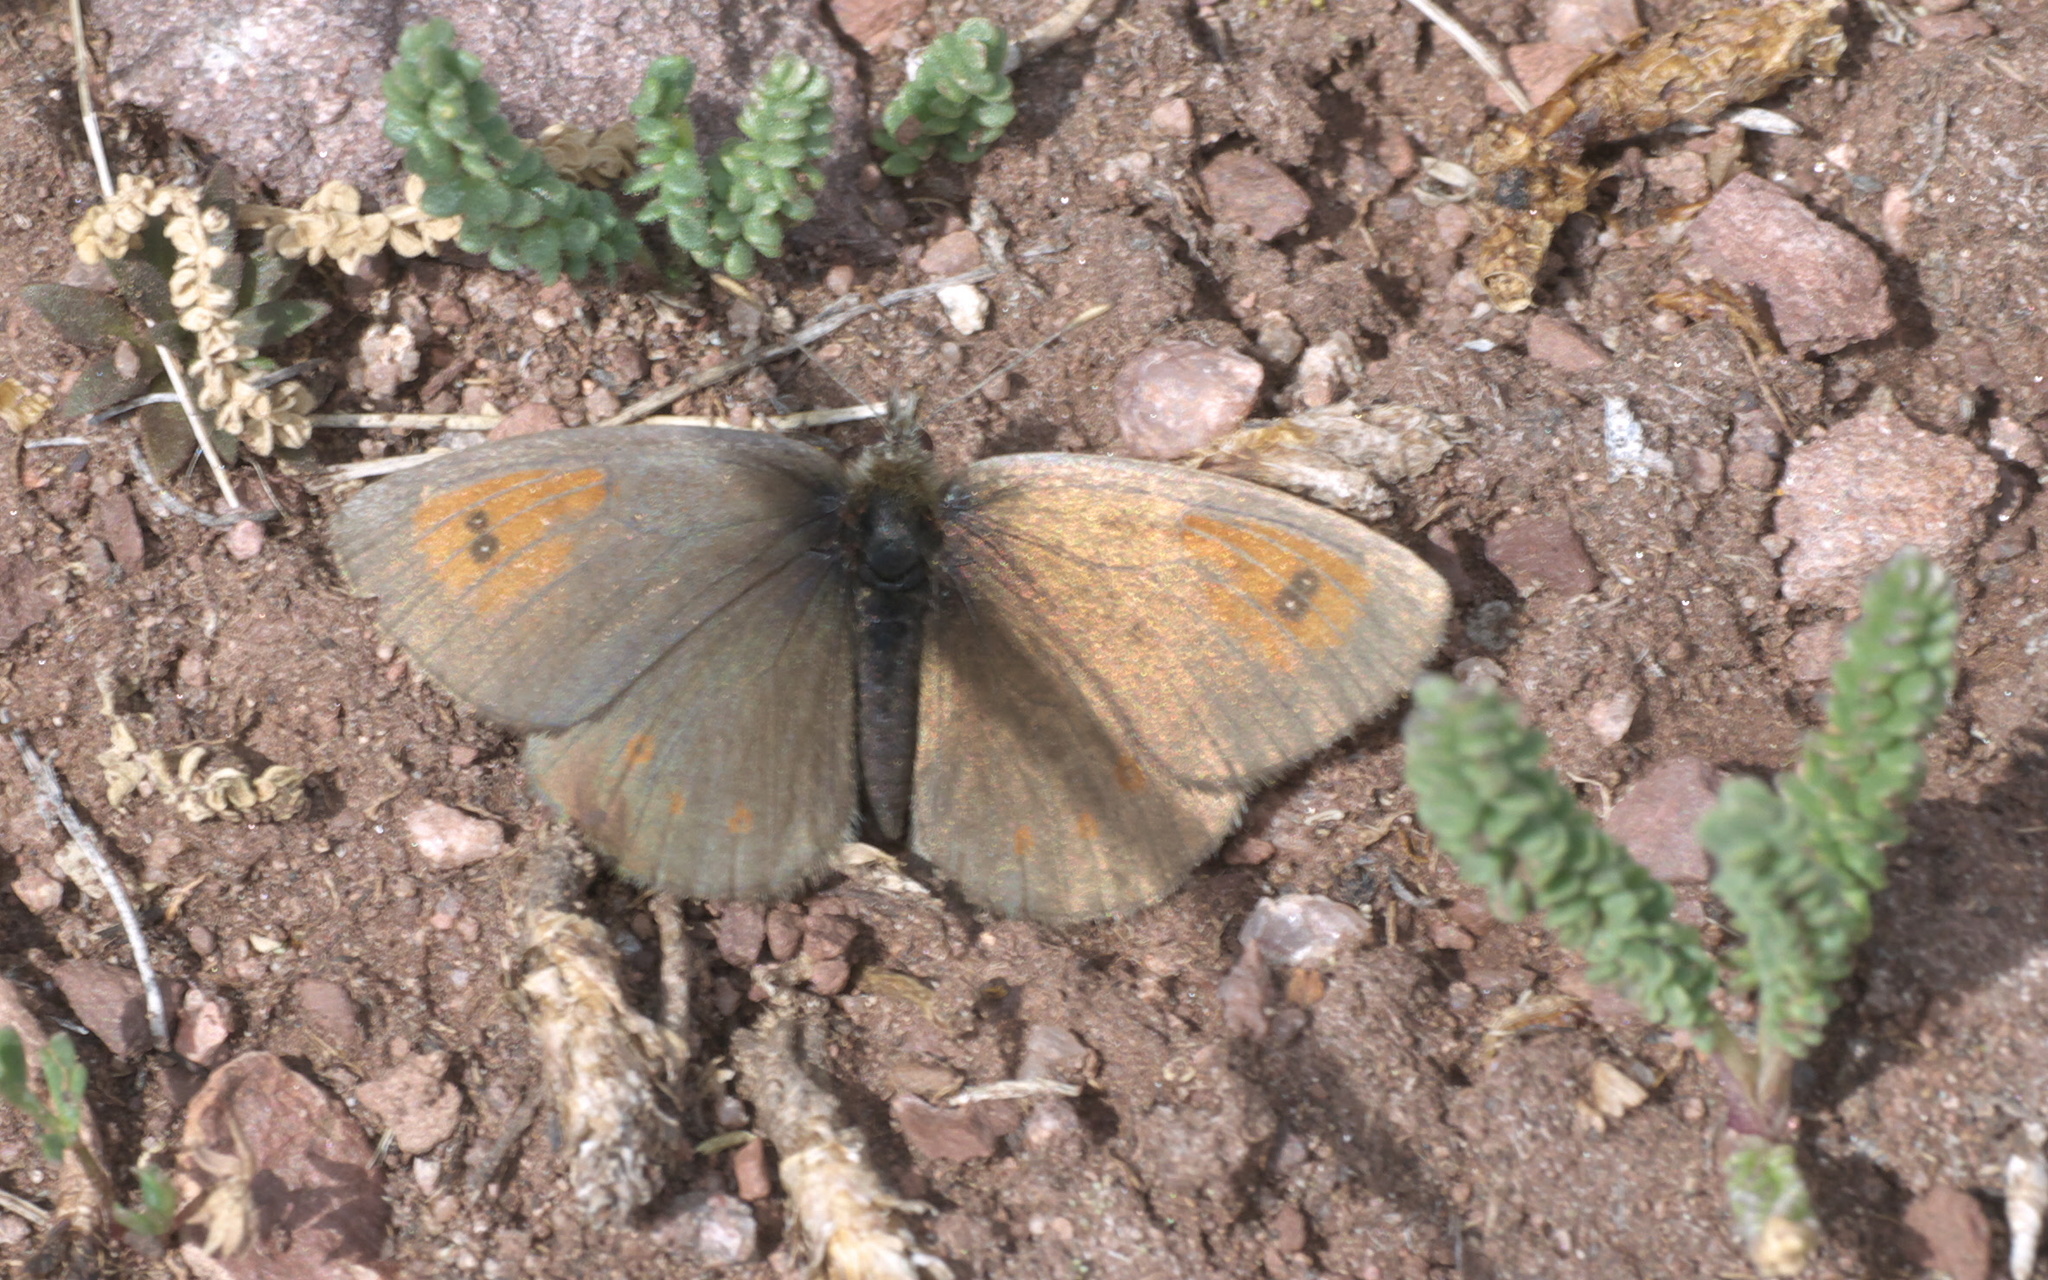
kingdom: Animalia
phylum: Arthropoda
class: Insecta
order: Lepidoptera
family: Nymphalidae
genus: Erebia
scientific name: Erebia tyndarus
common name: Swiss brassy ringlet
